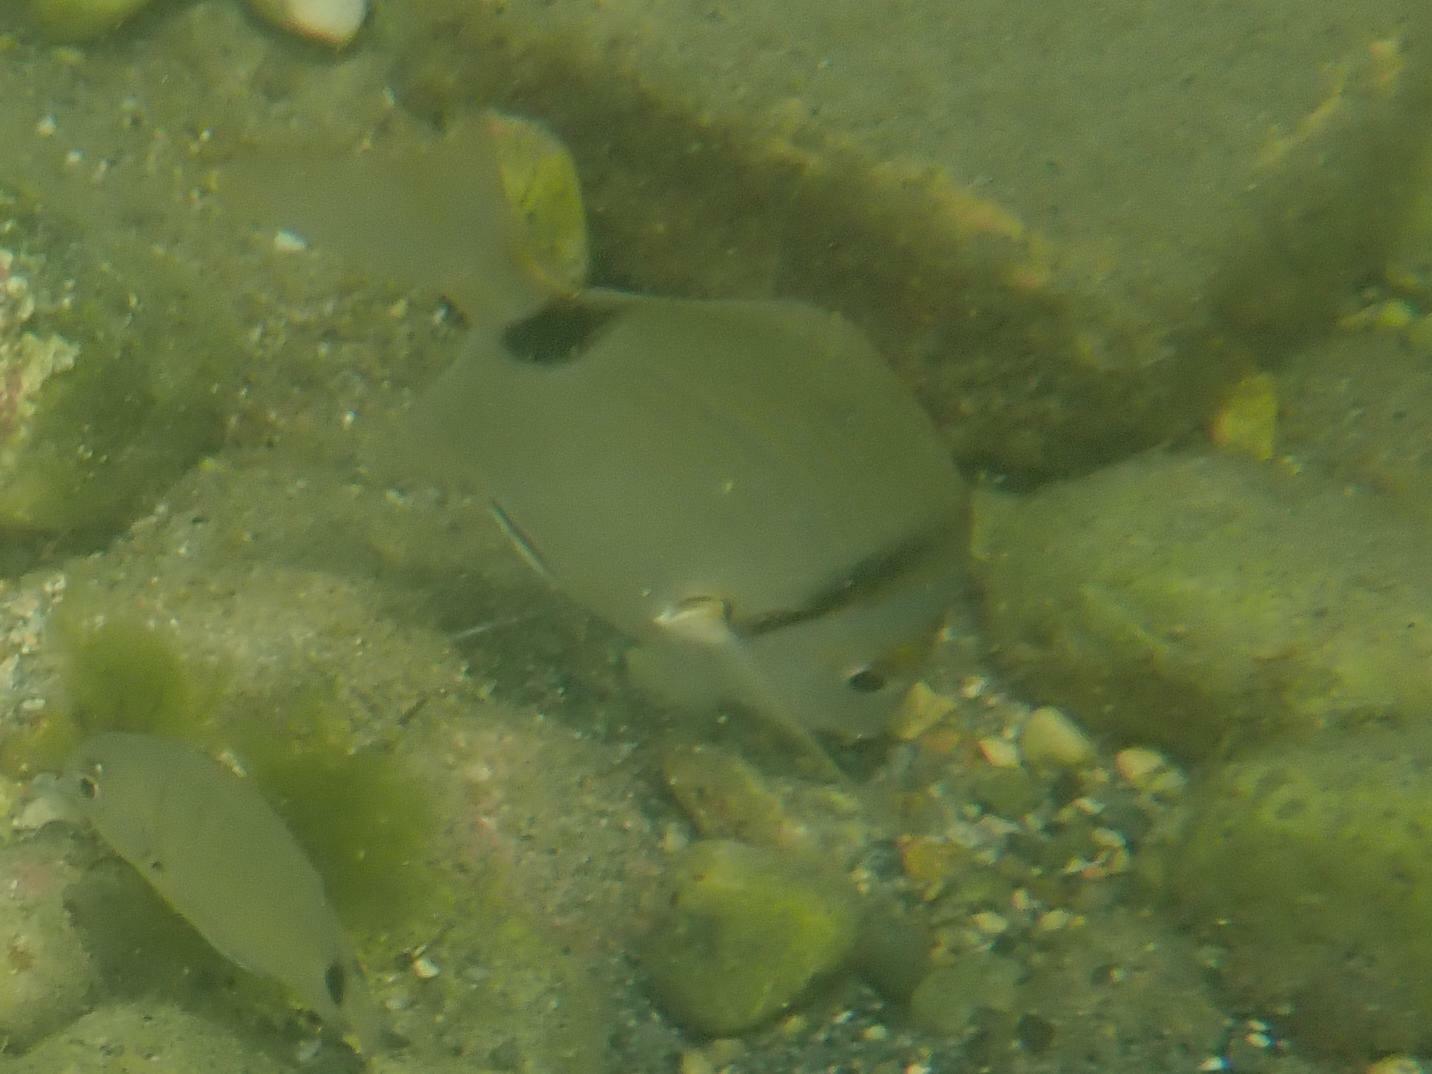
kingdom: Animalia
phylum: Chordata
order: Perciformes
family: Sparidae
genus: Diplodus
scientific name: Diplodus vulgaris
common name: Common two-banded seabream
